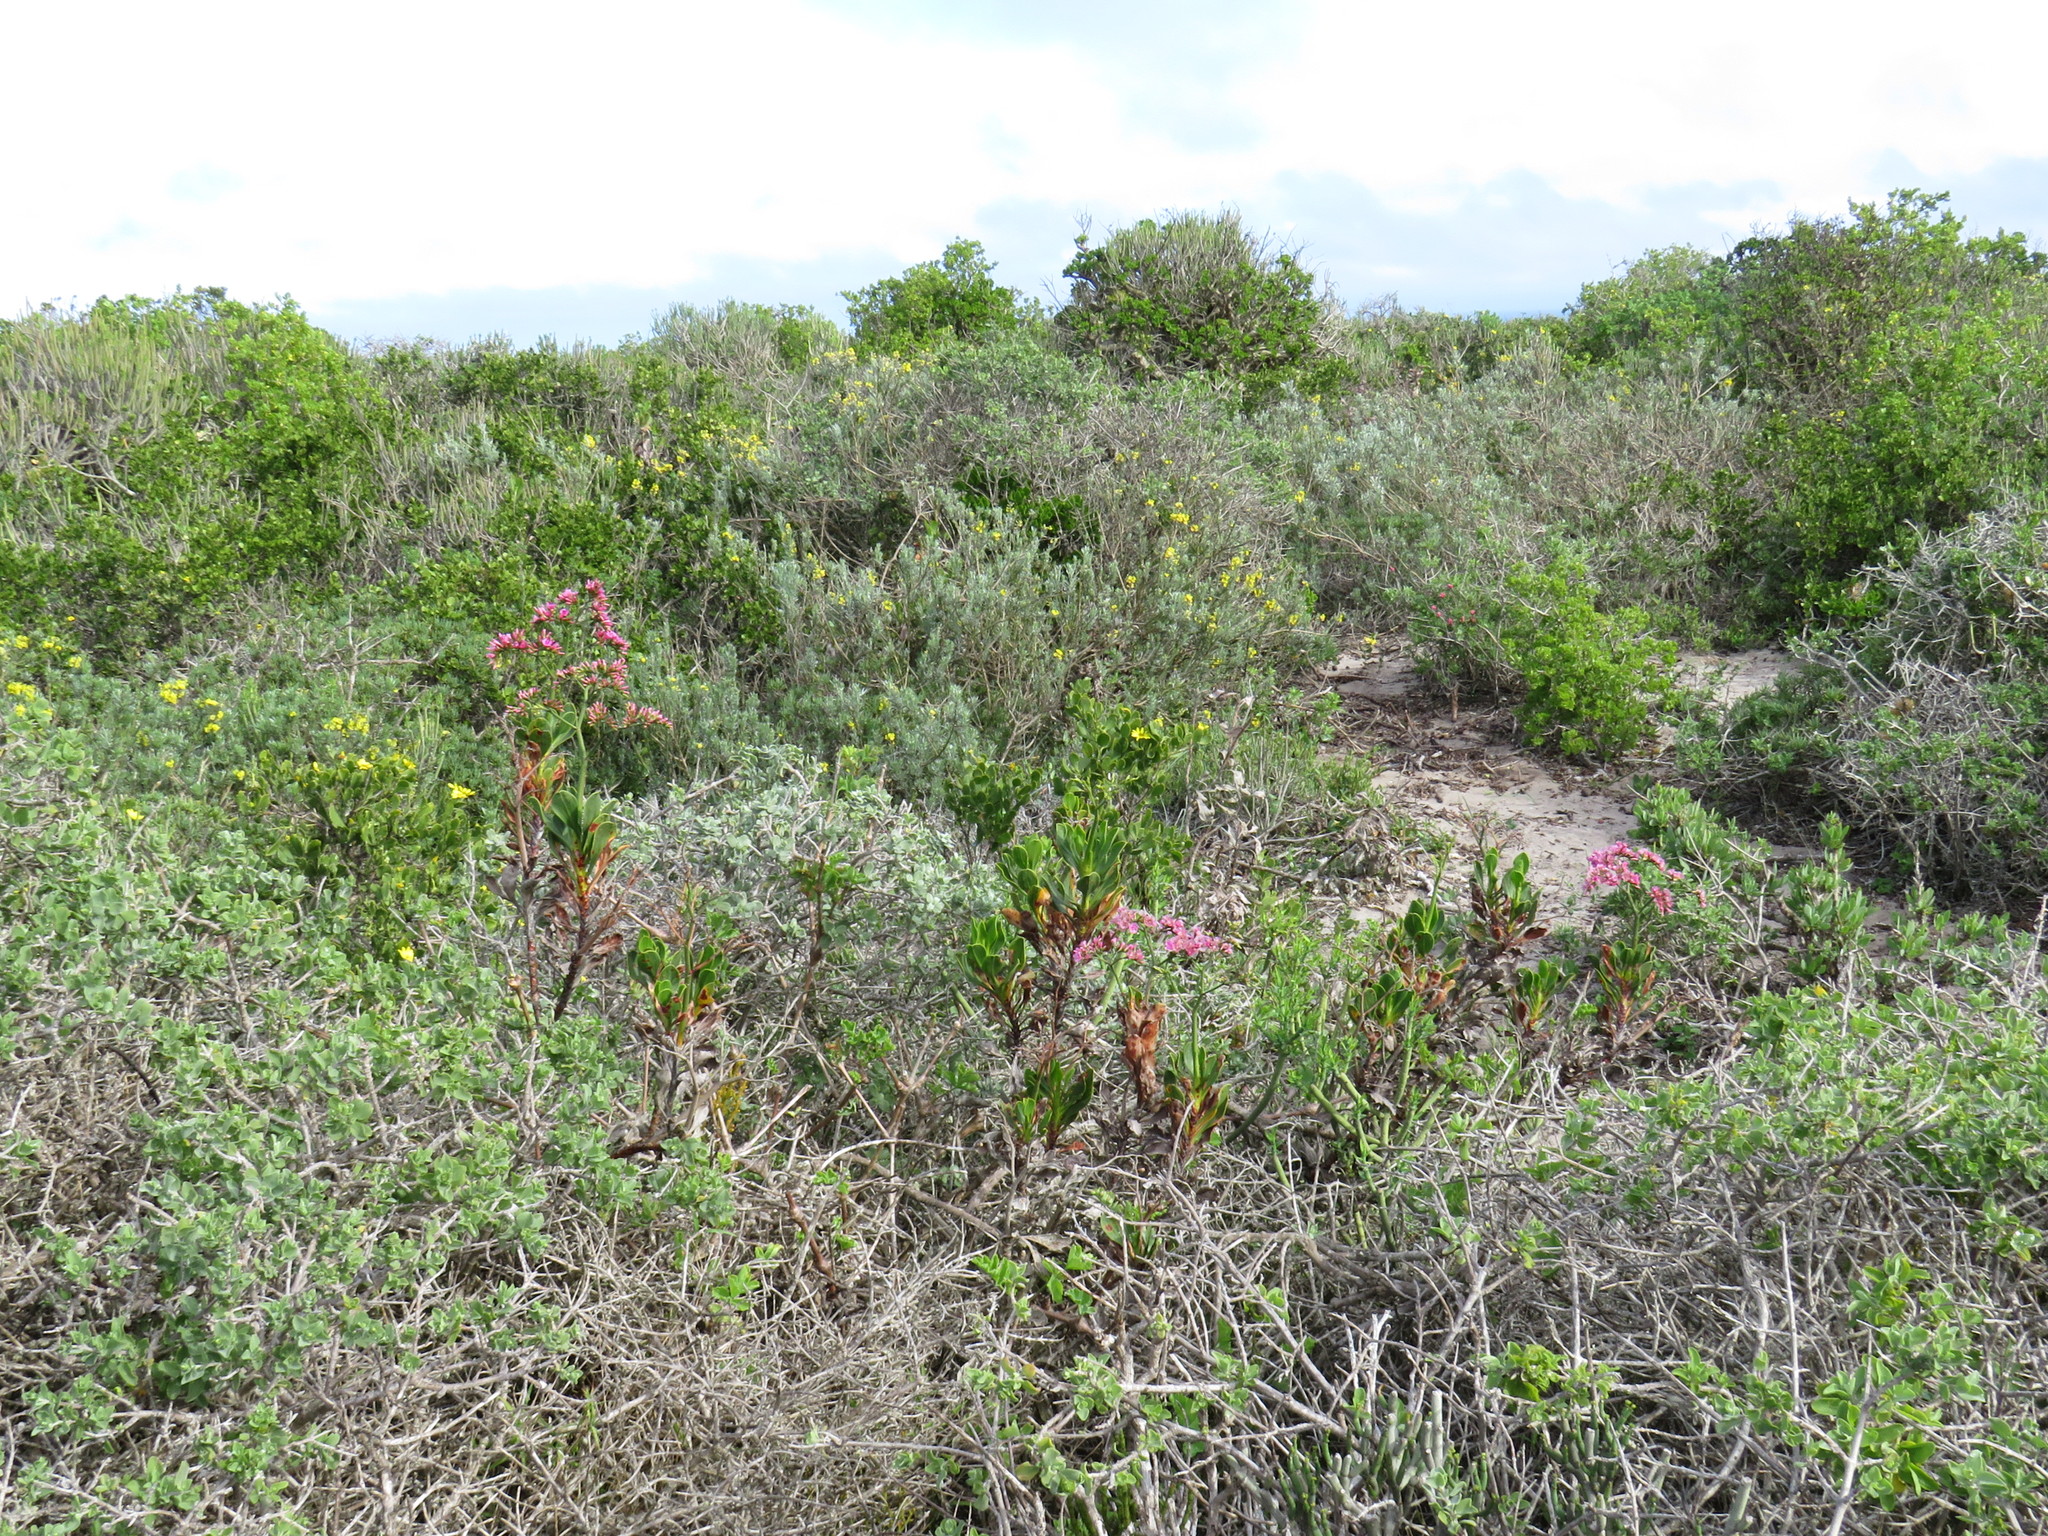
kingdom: Plantae
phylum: Tracheophyta
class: Magnoliopsida
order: Caryophyllales
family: Plumbaginaceae
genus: Limonium
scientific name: Limonium peregrinum
